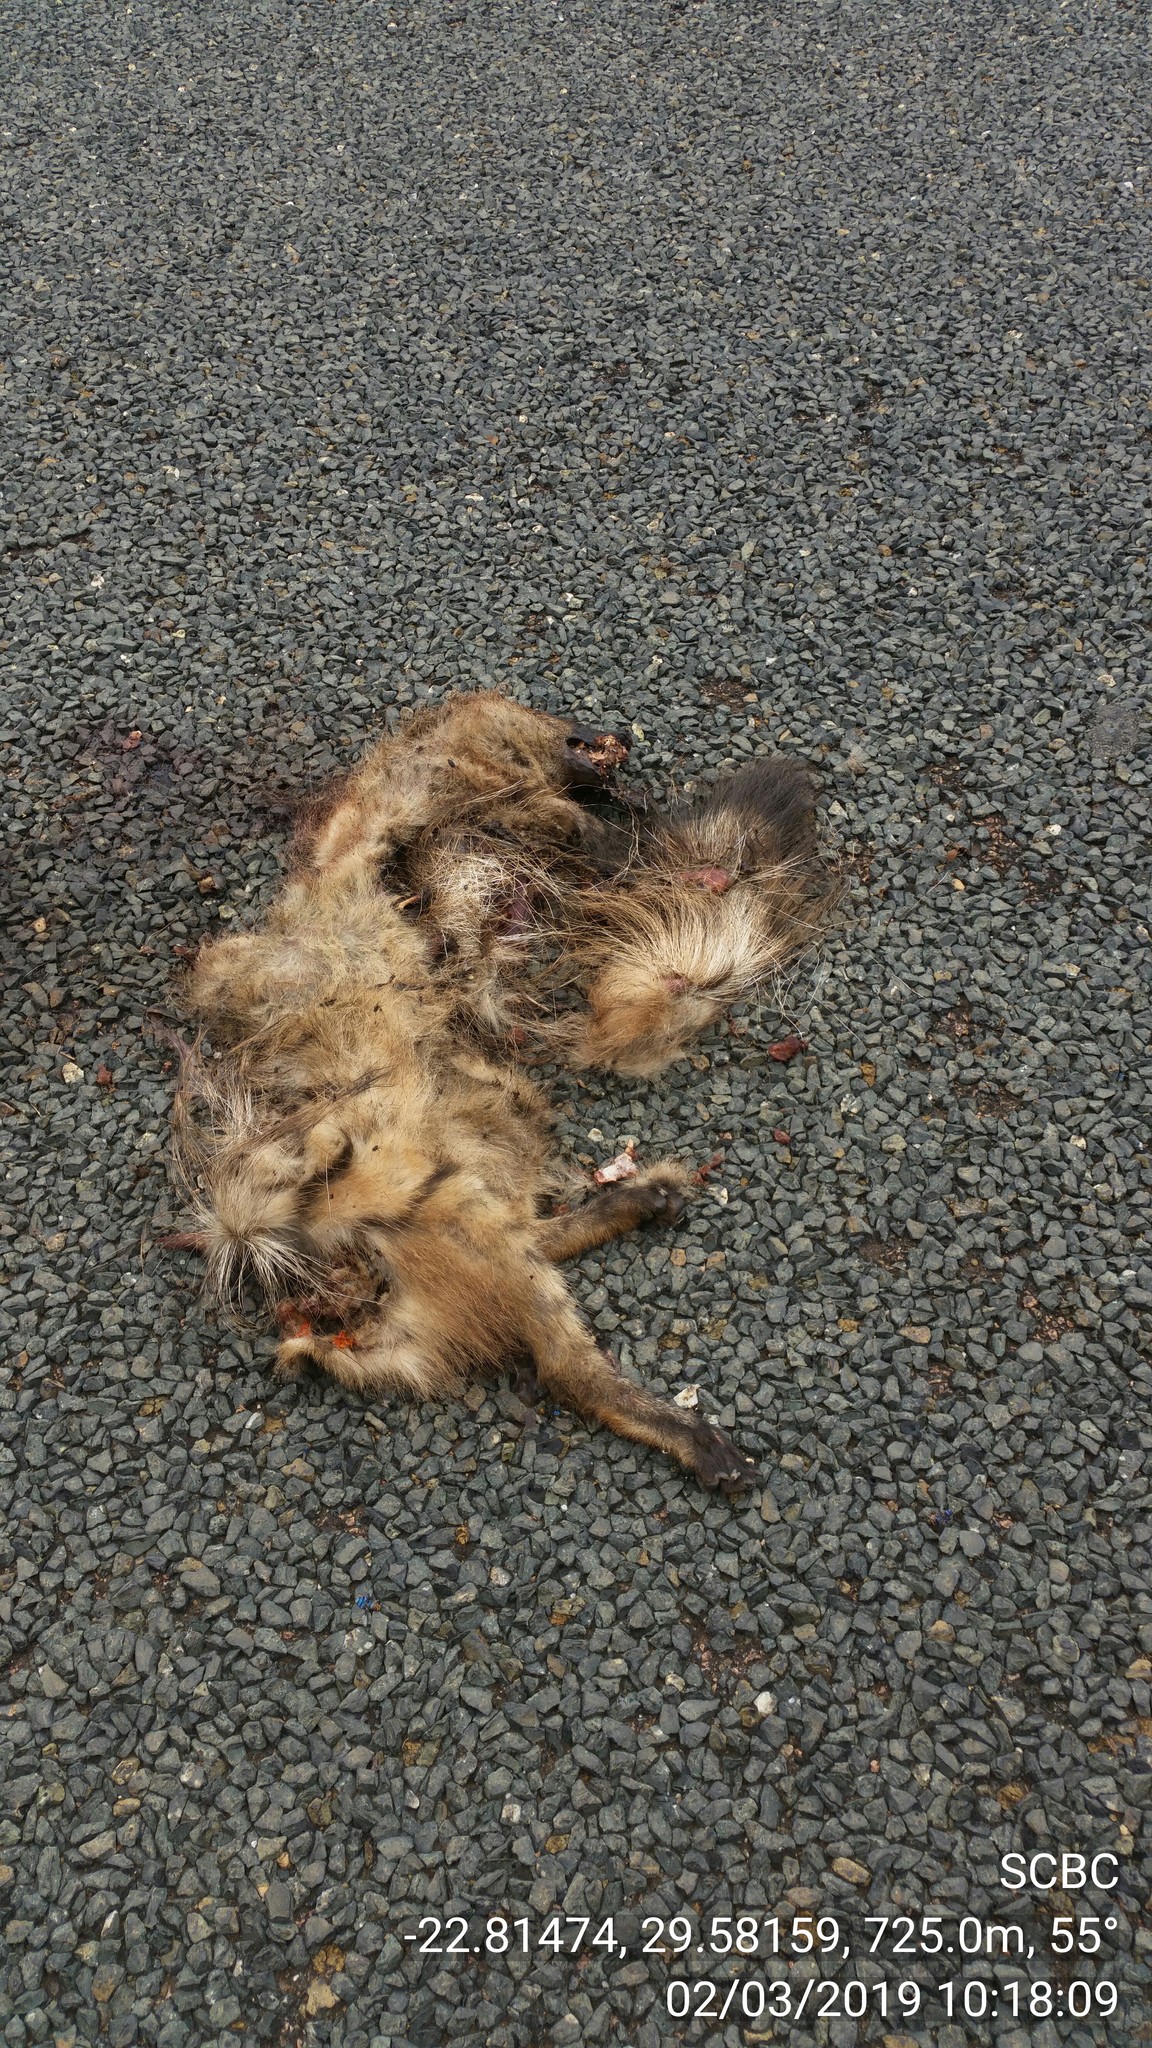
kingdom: Animalia
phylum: Chordata
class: Mammalia
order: Carnivora
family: Hyaenidae
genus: Proteles
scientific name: Proteles cristata
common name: Aardwolf
